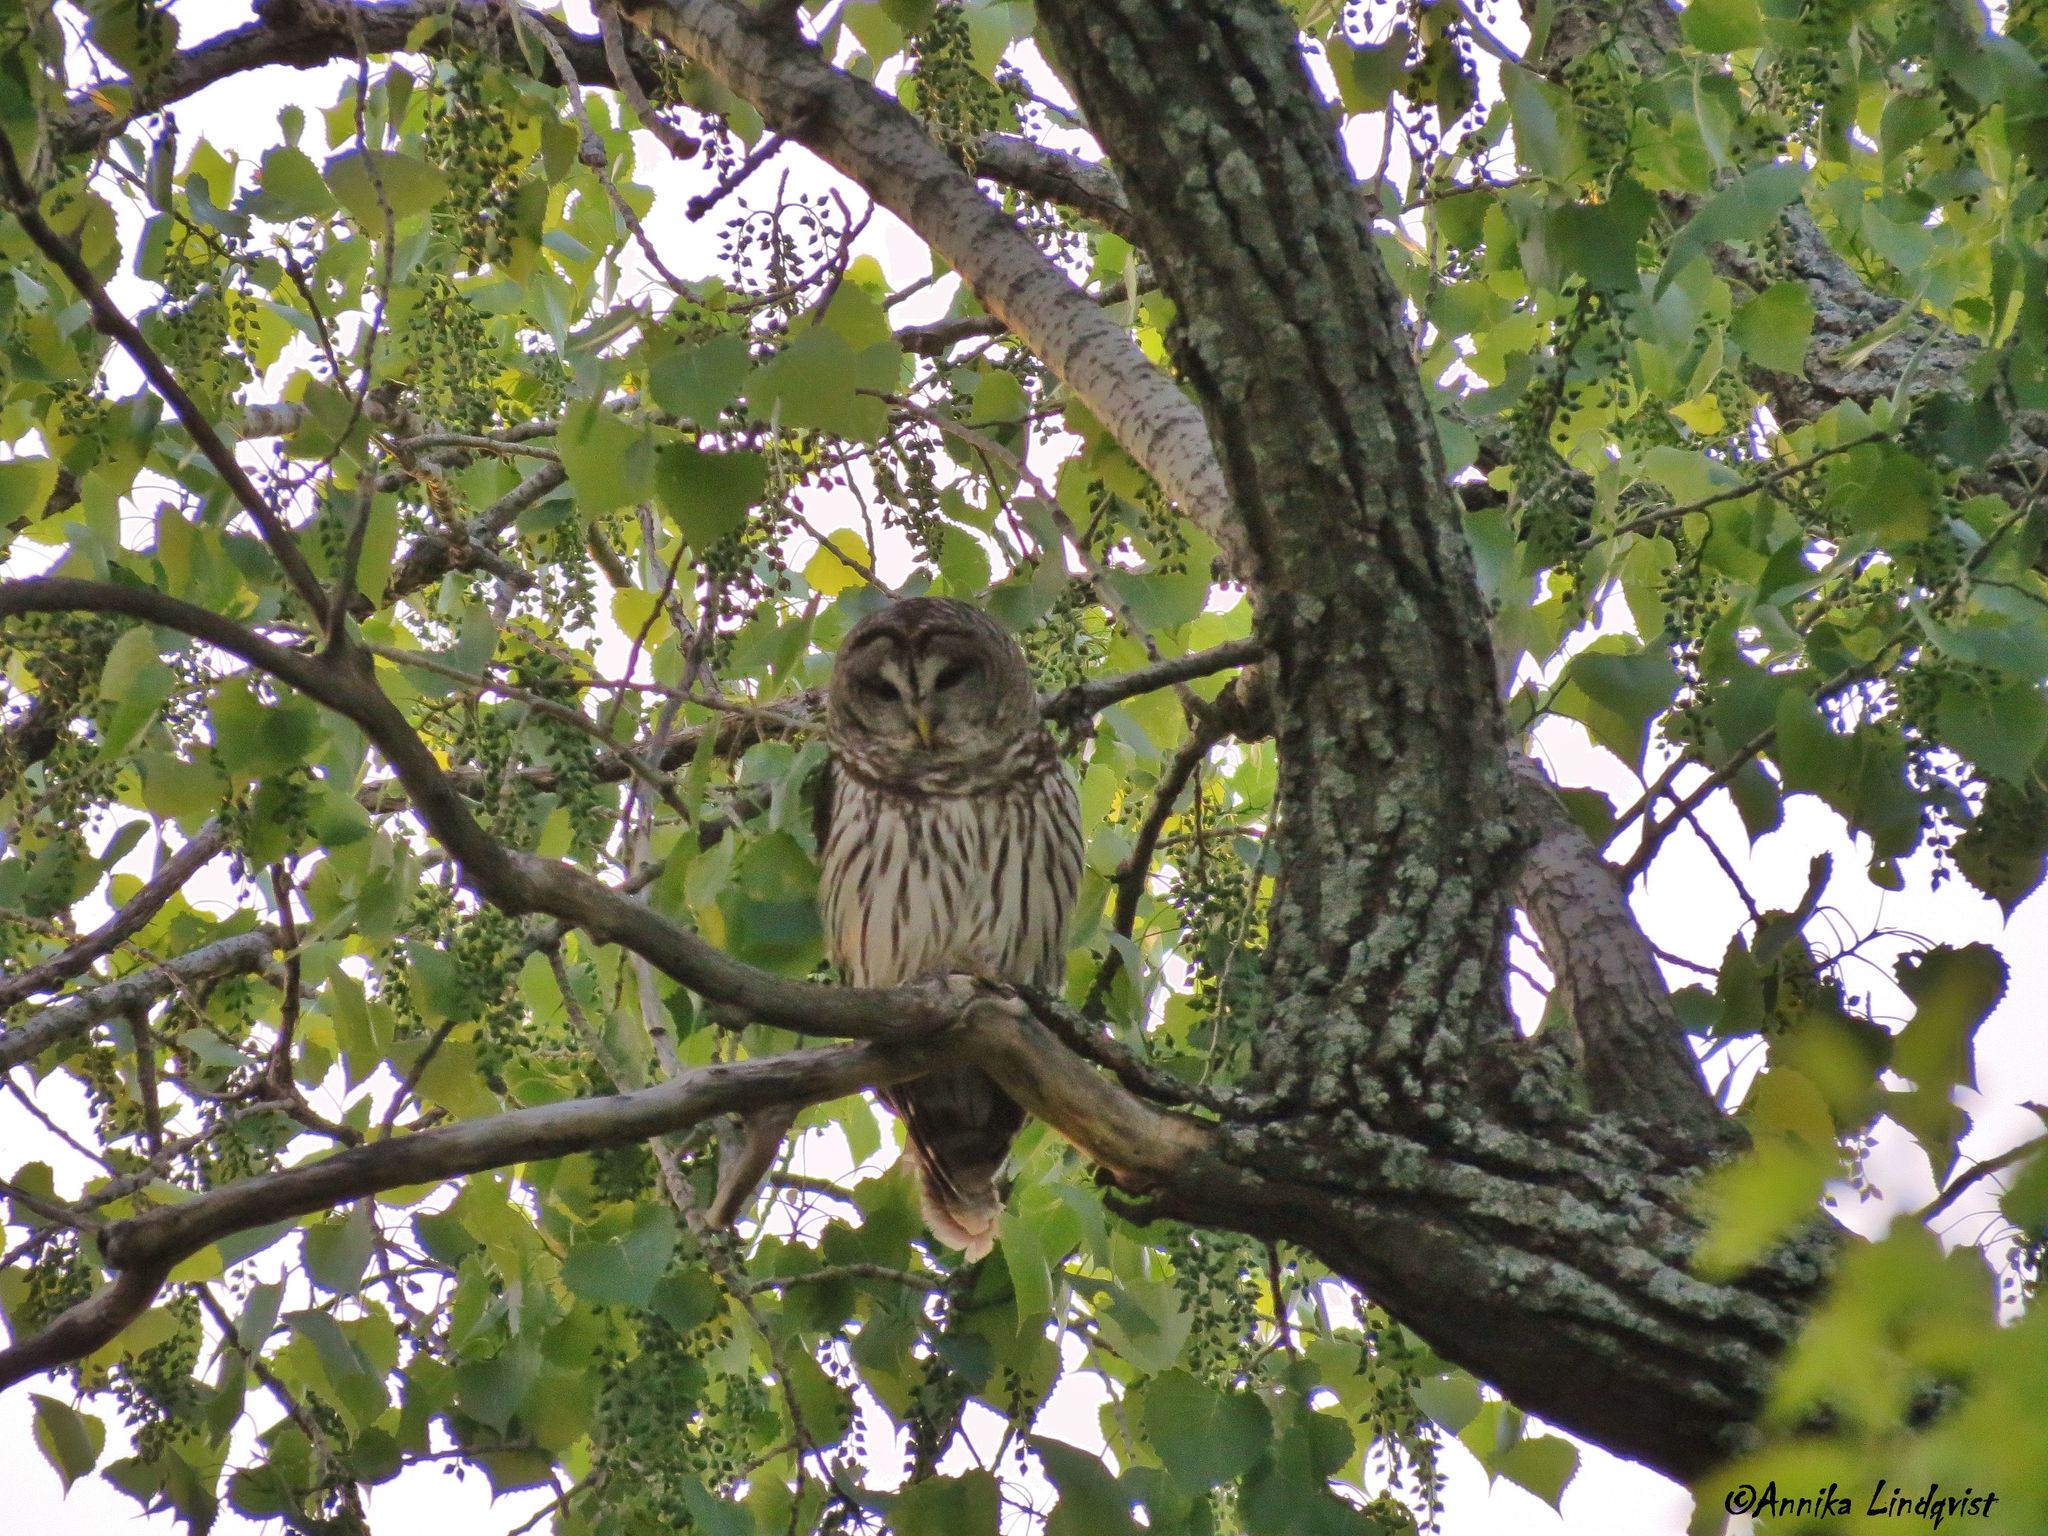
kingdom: Animalia
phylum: Chordata
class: Aves
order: Strigiformes
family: Strigidae
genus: Strix
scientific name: Strix varia
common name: Barred owl
